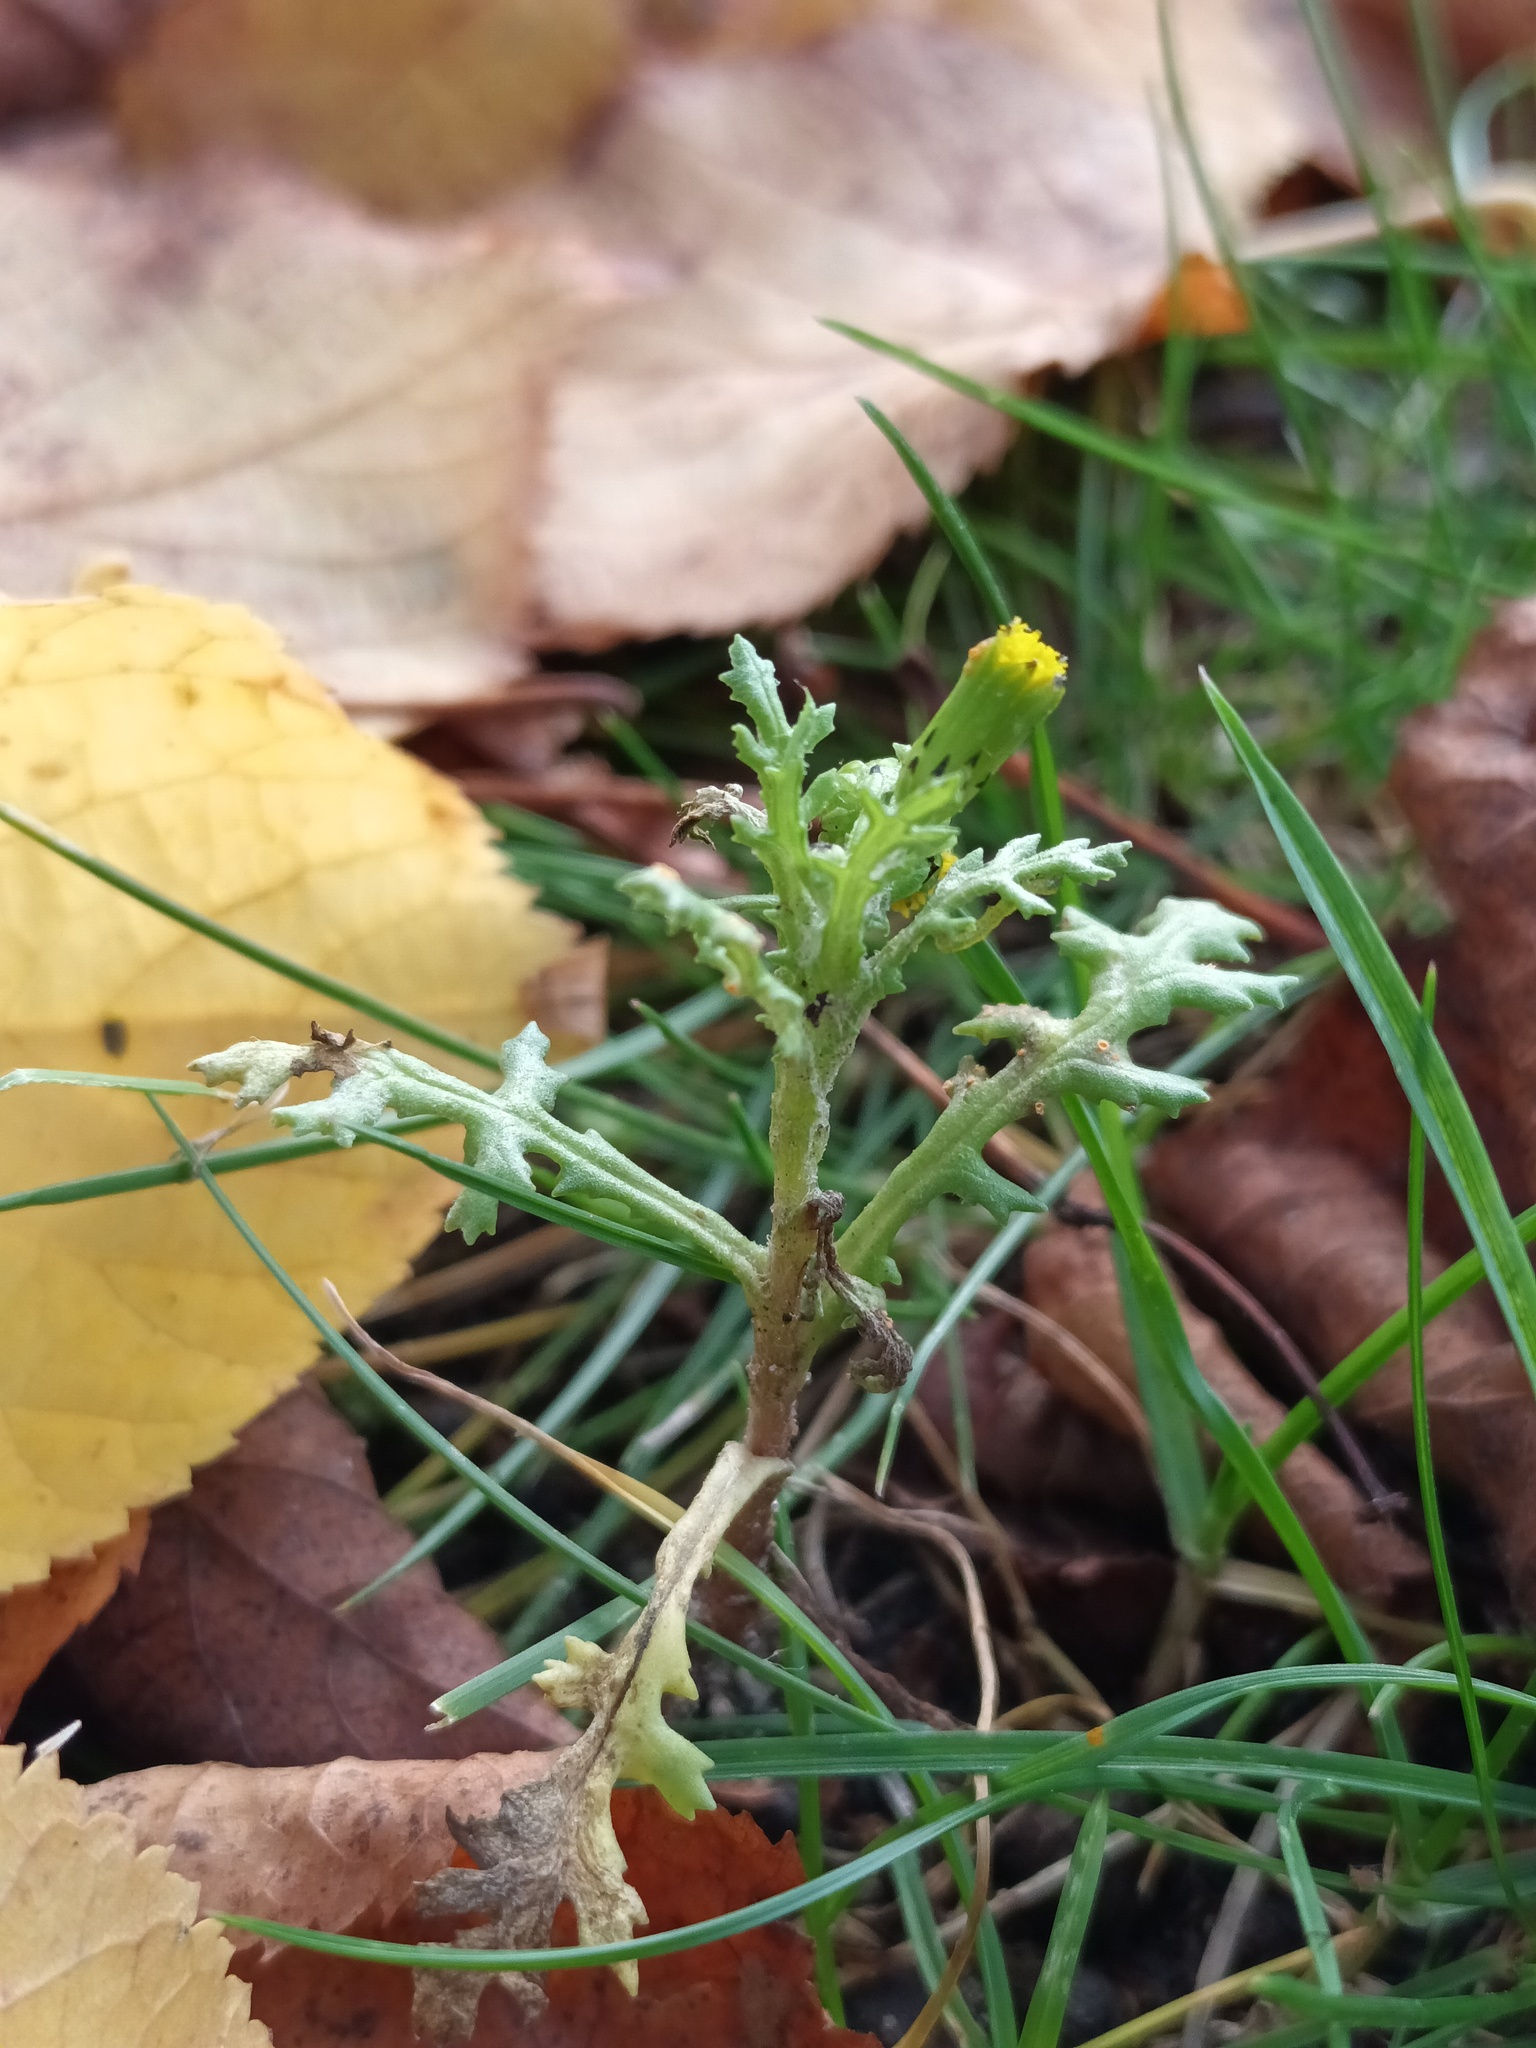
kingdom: Plantae
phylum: Tracheophyta
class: Magnoliopsida
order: Asterales
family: Asteraceae
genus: Senecio
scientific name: Senecio vulgaris
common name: Old-man-in-the-spring
